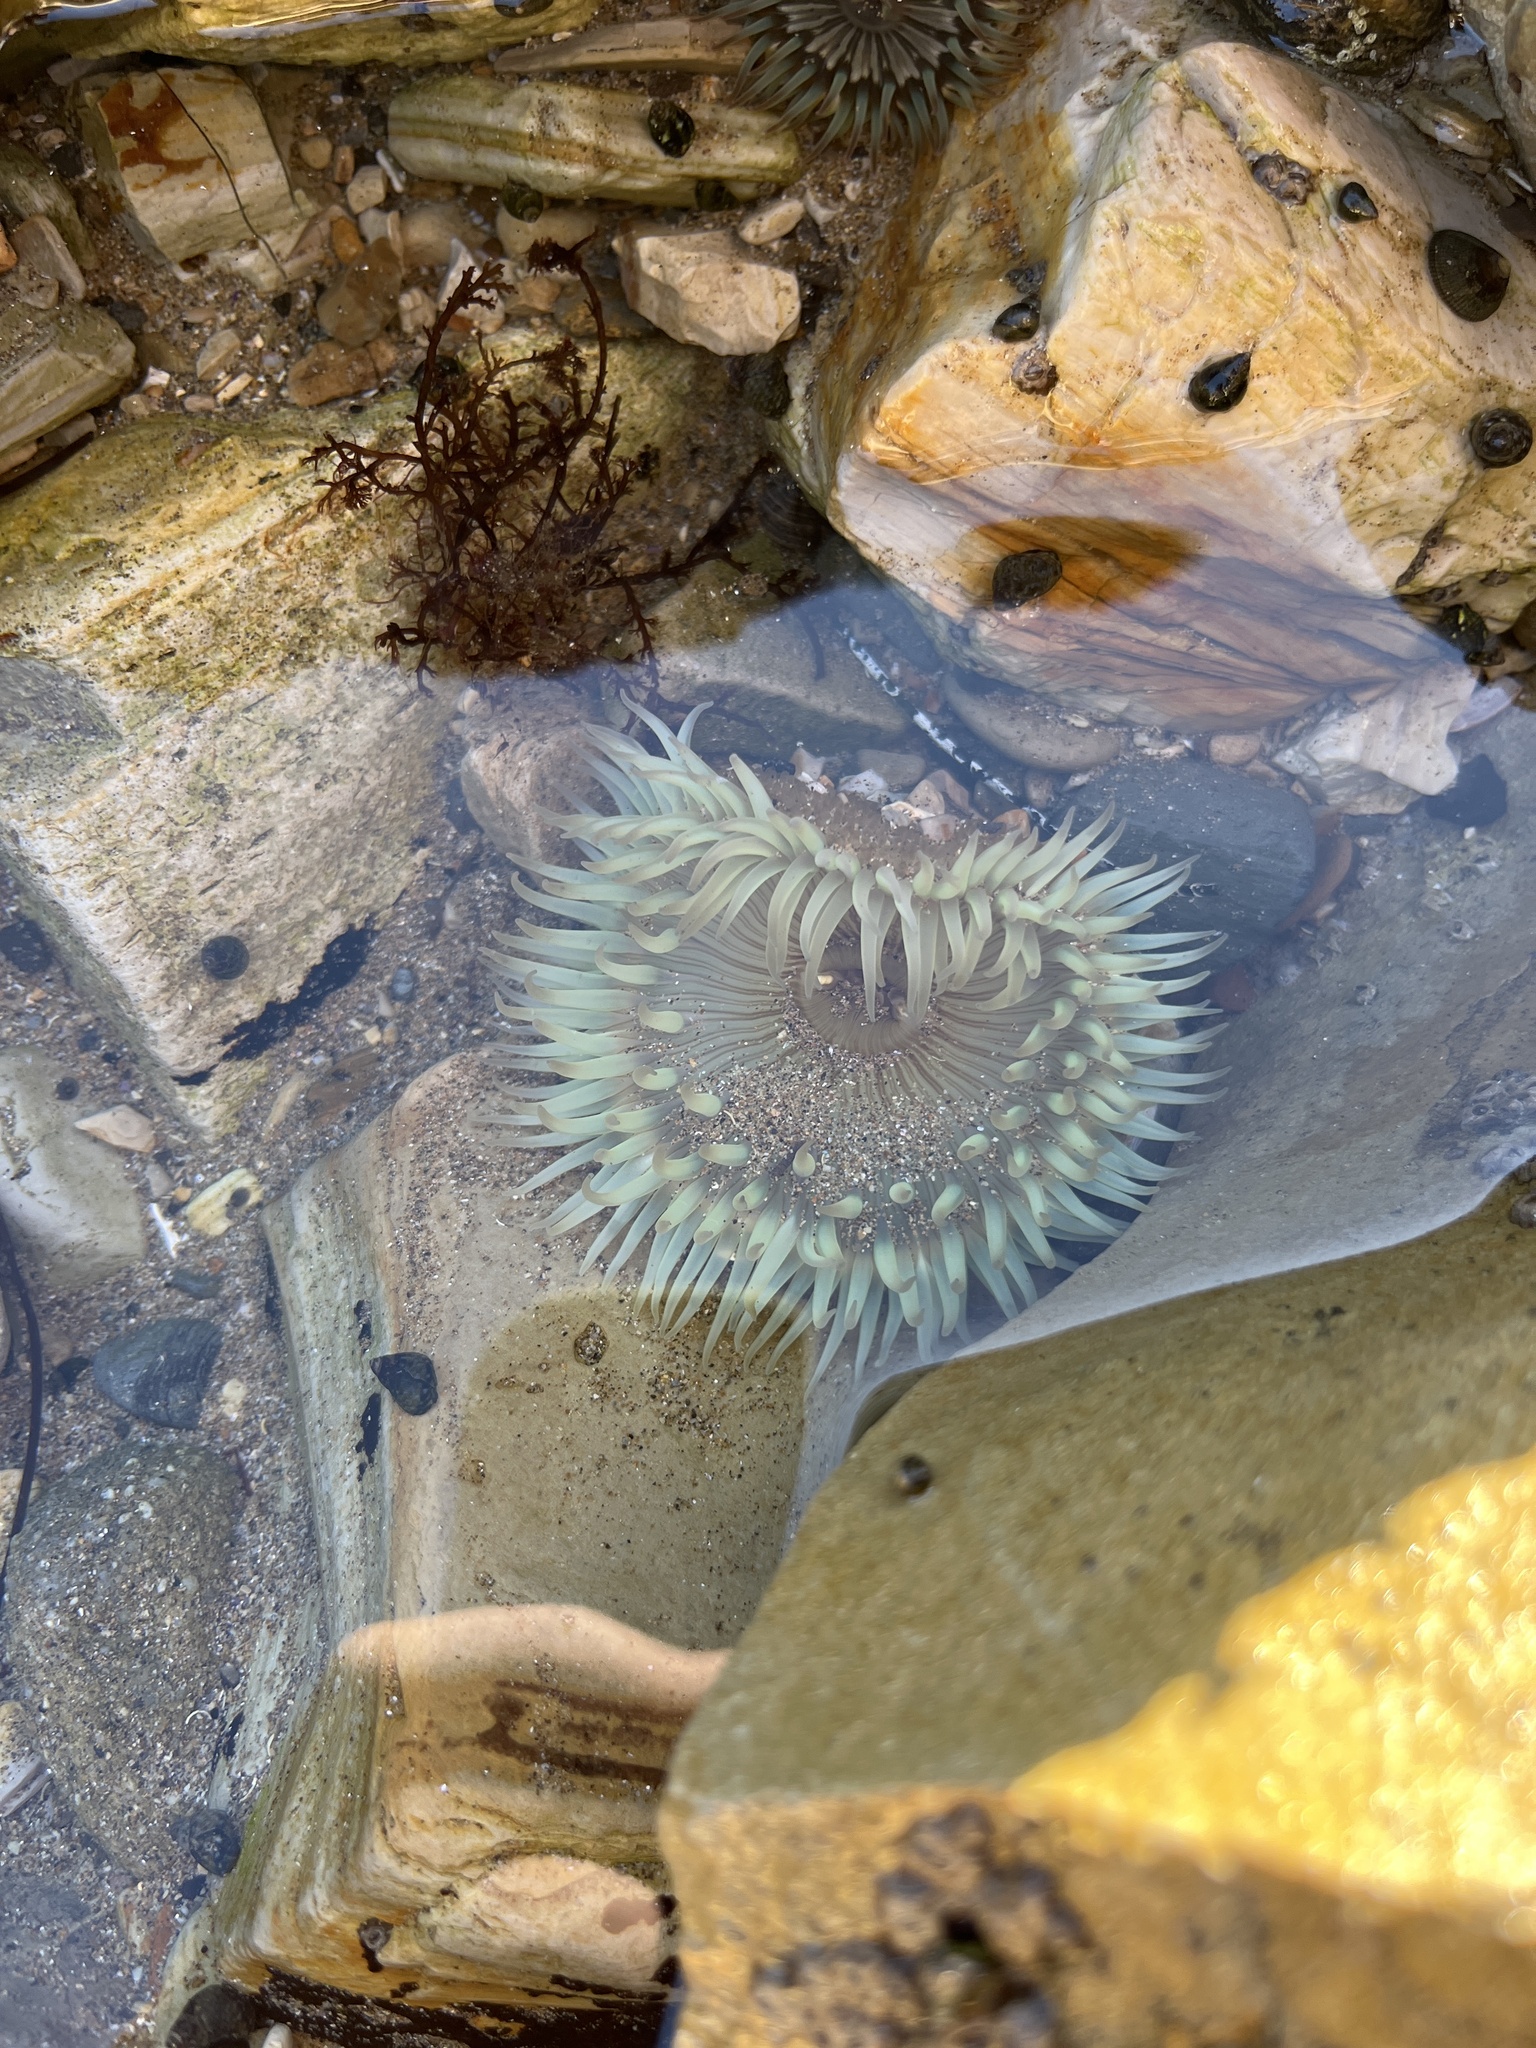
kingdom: Animalia
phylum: Cnidaria
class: Anthozoa
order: Actiniaria
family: Actiniidae
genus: Anthopleura
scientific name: Anthopleura sola
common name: Sun anemone
